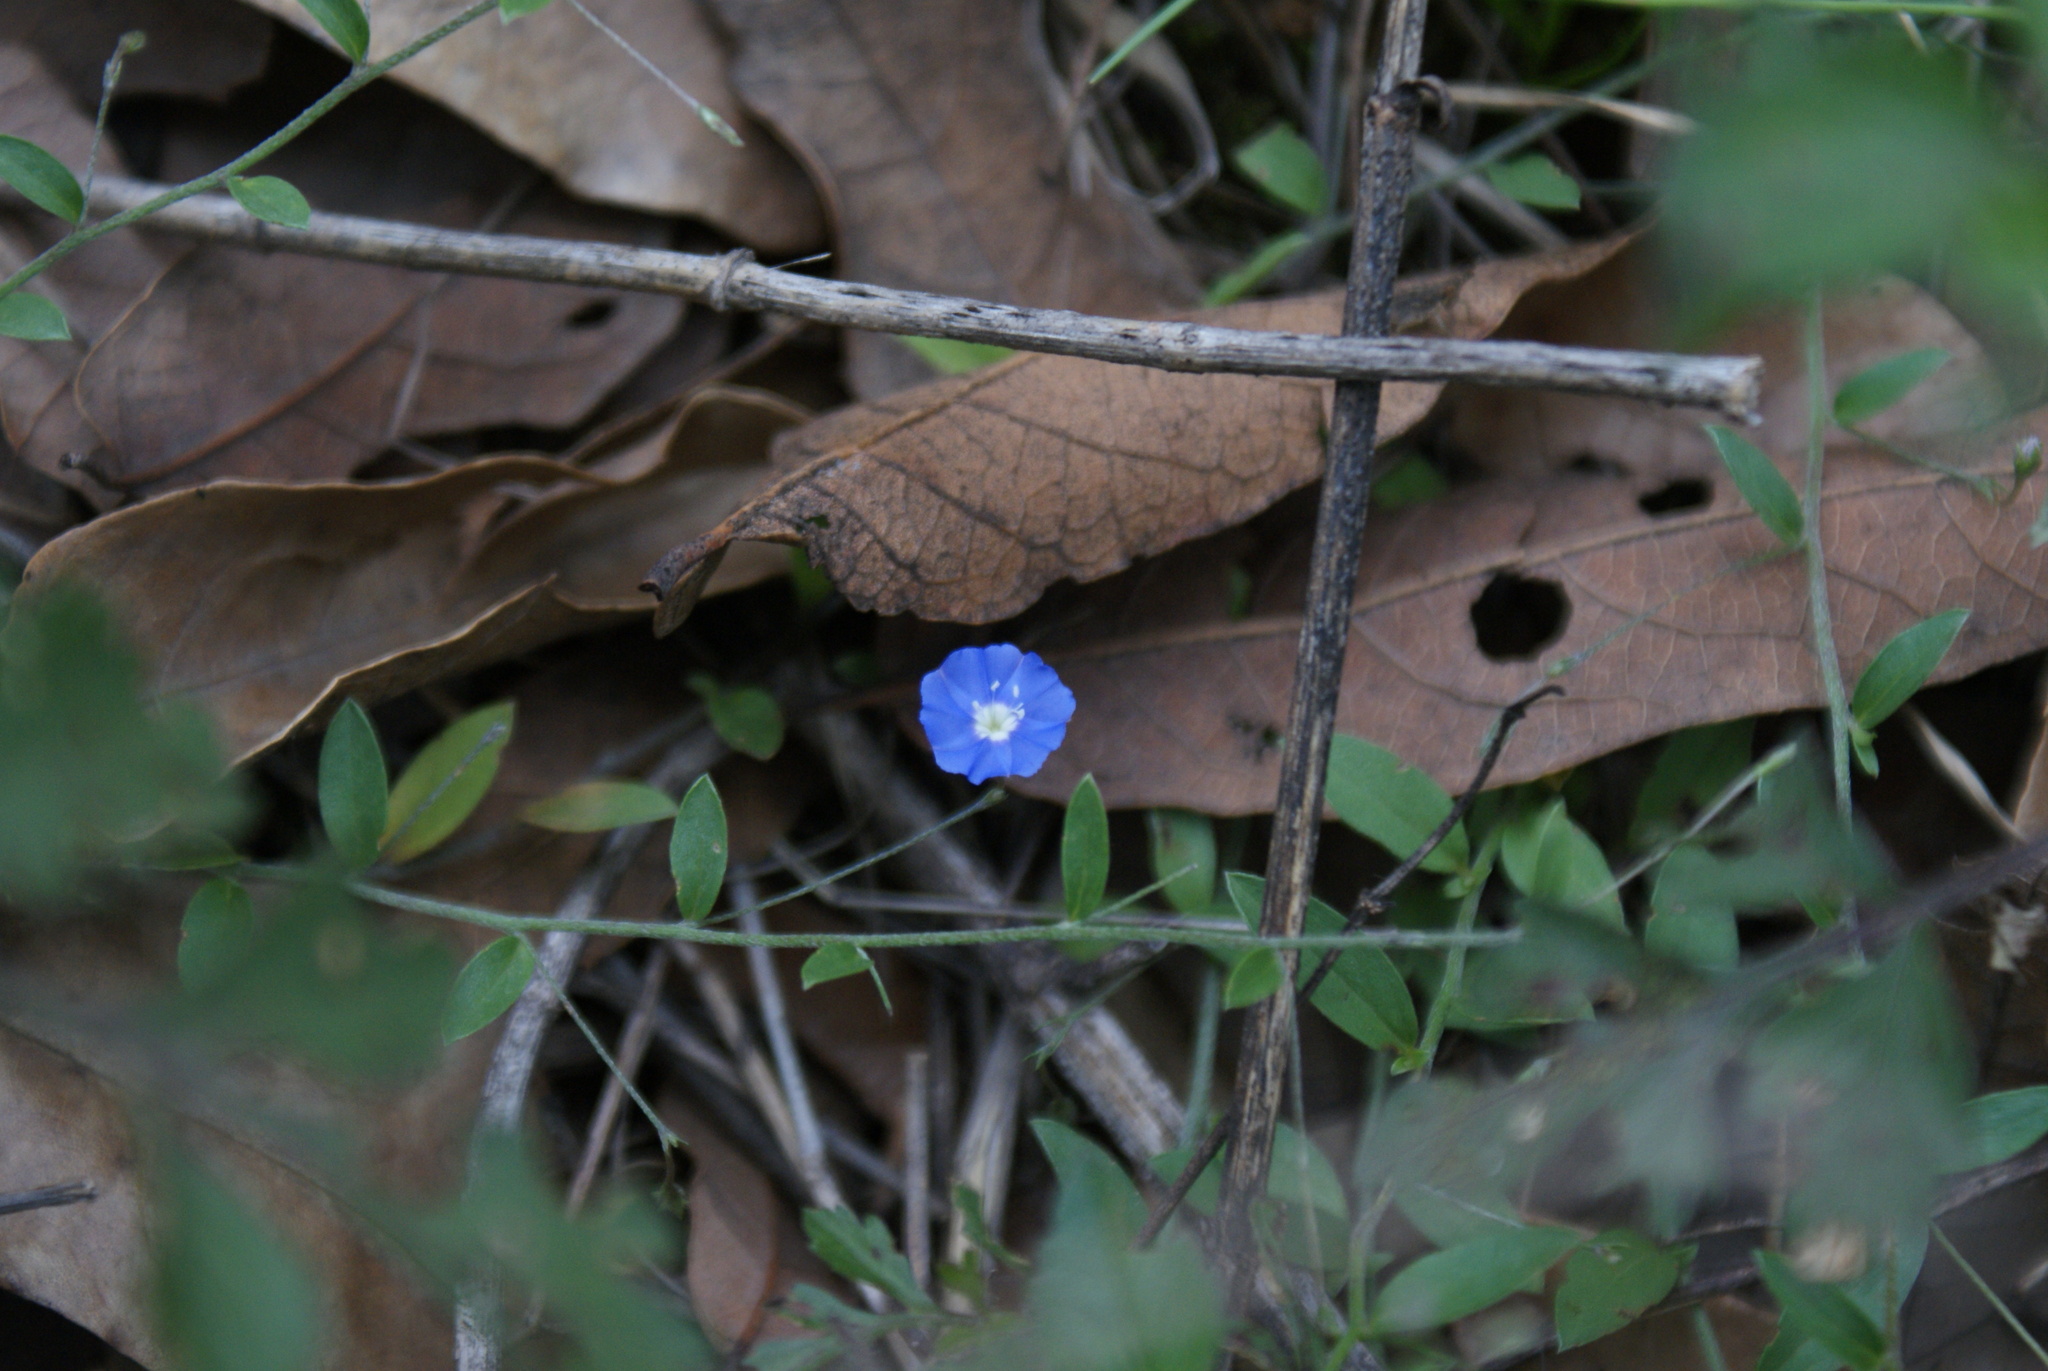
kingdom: Plantae
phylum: Tracheophyta
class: Magnoliopsida
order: Solanales
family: Convolvulaceae
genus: Evolvulus
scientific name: Evolvulus alsinoides
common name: Slender dwarf morning-glory
